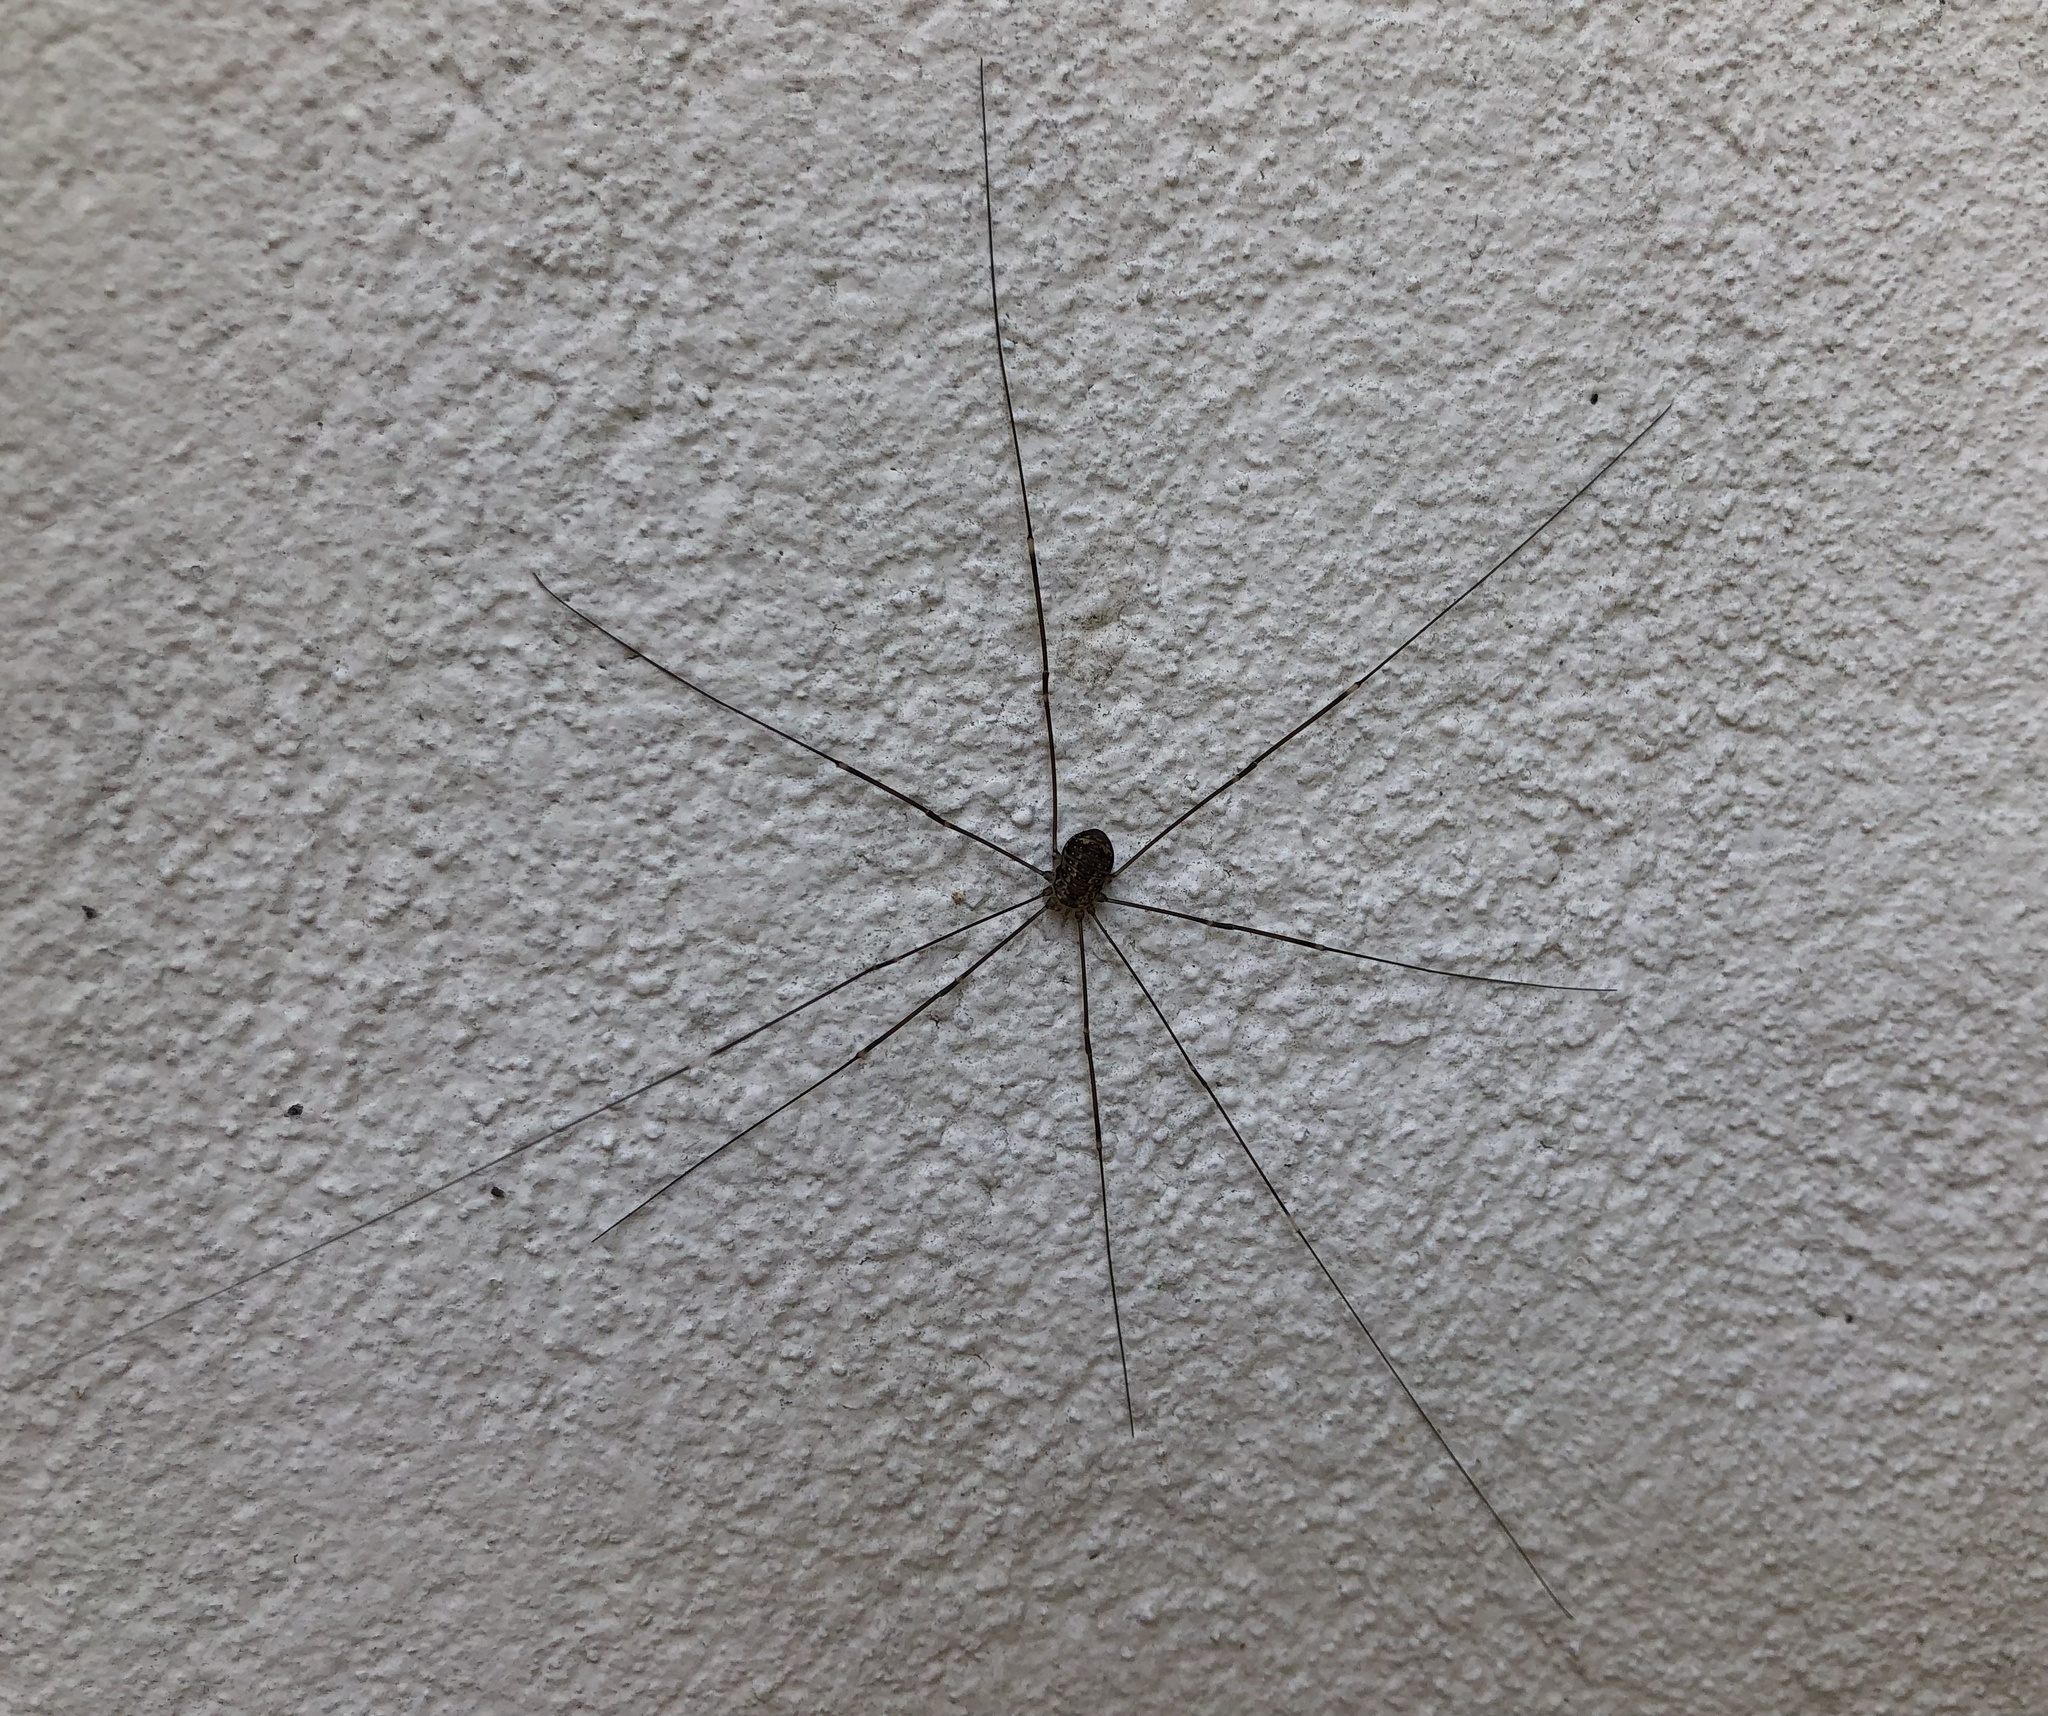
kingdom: Animalia
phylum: Arthropoda
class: Arachnida
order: Opiliones
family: Sclerosomatidae
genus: Leiobunum
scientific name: Leiobunum
